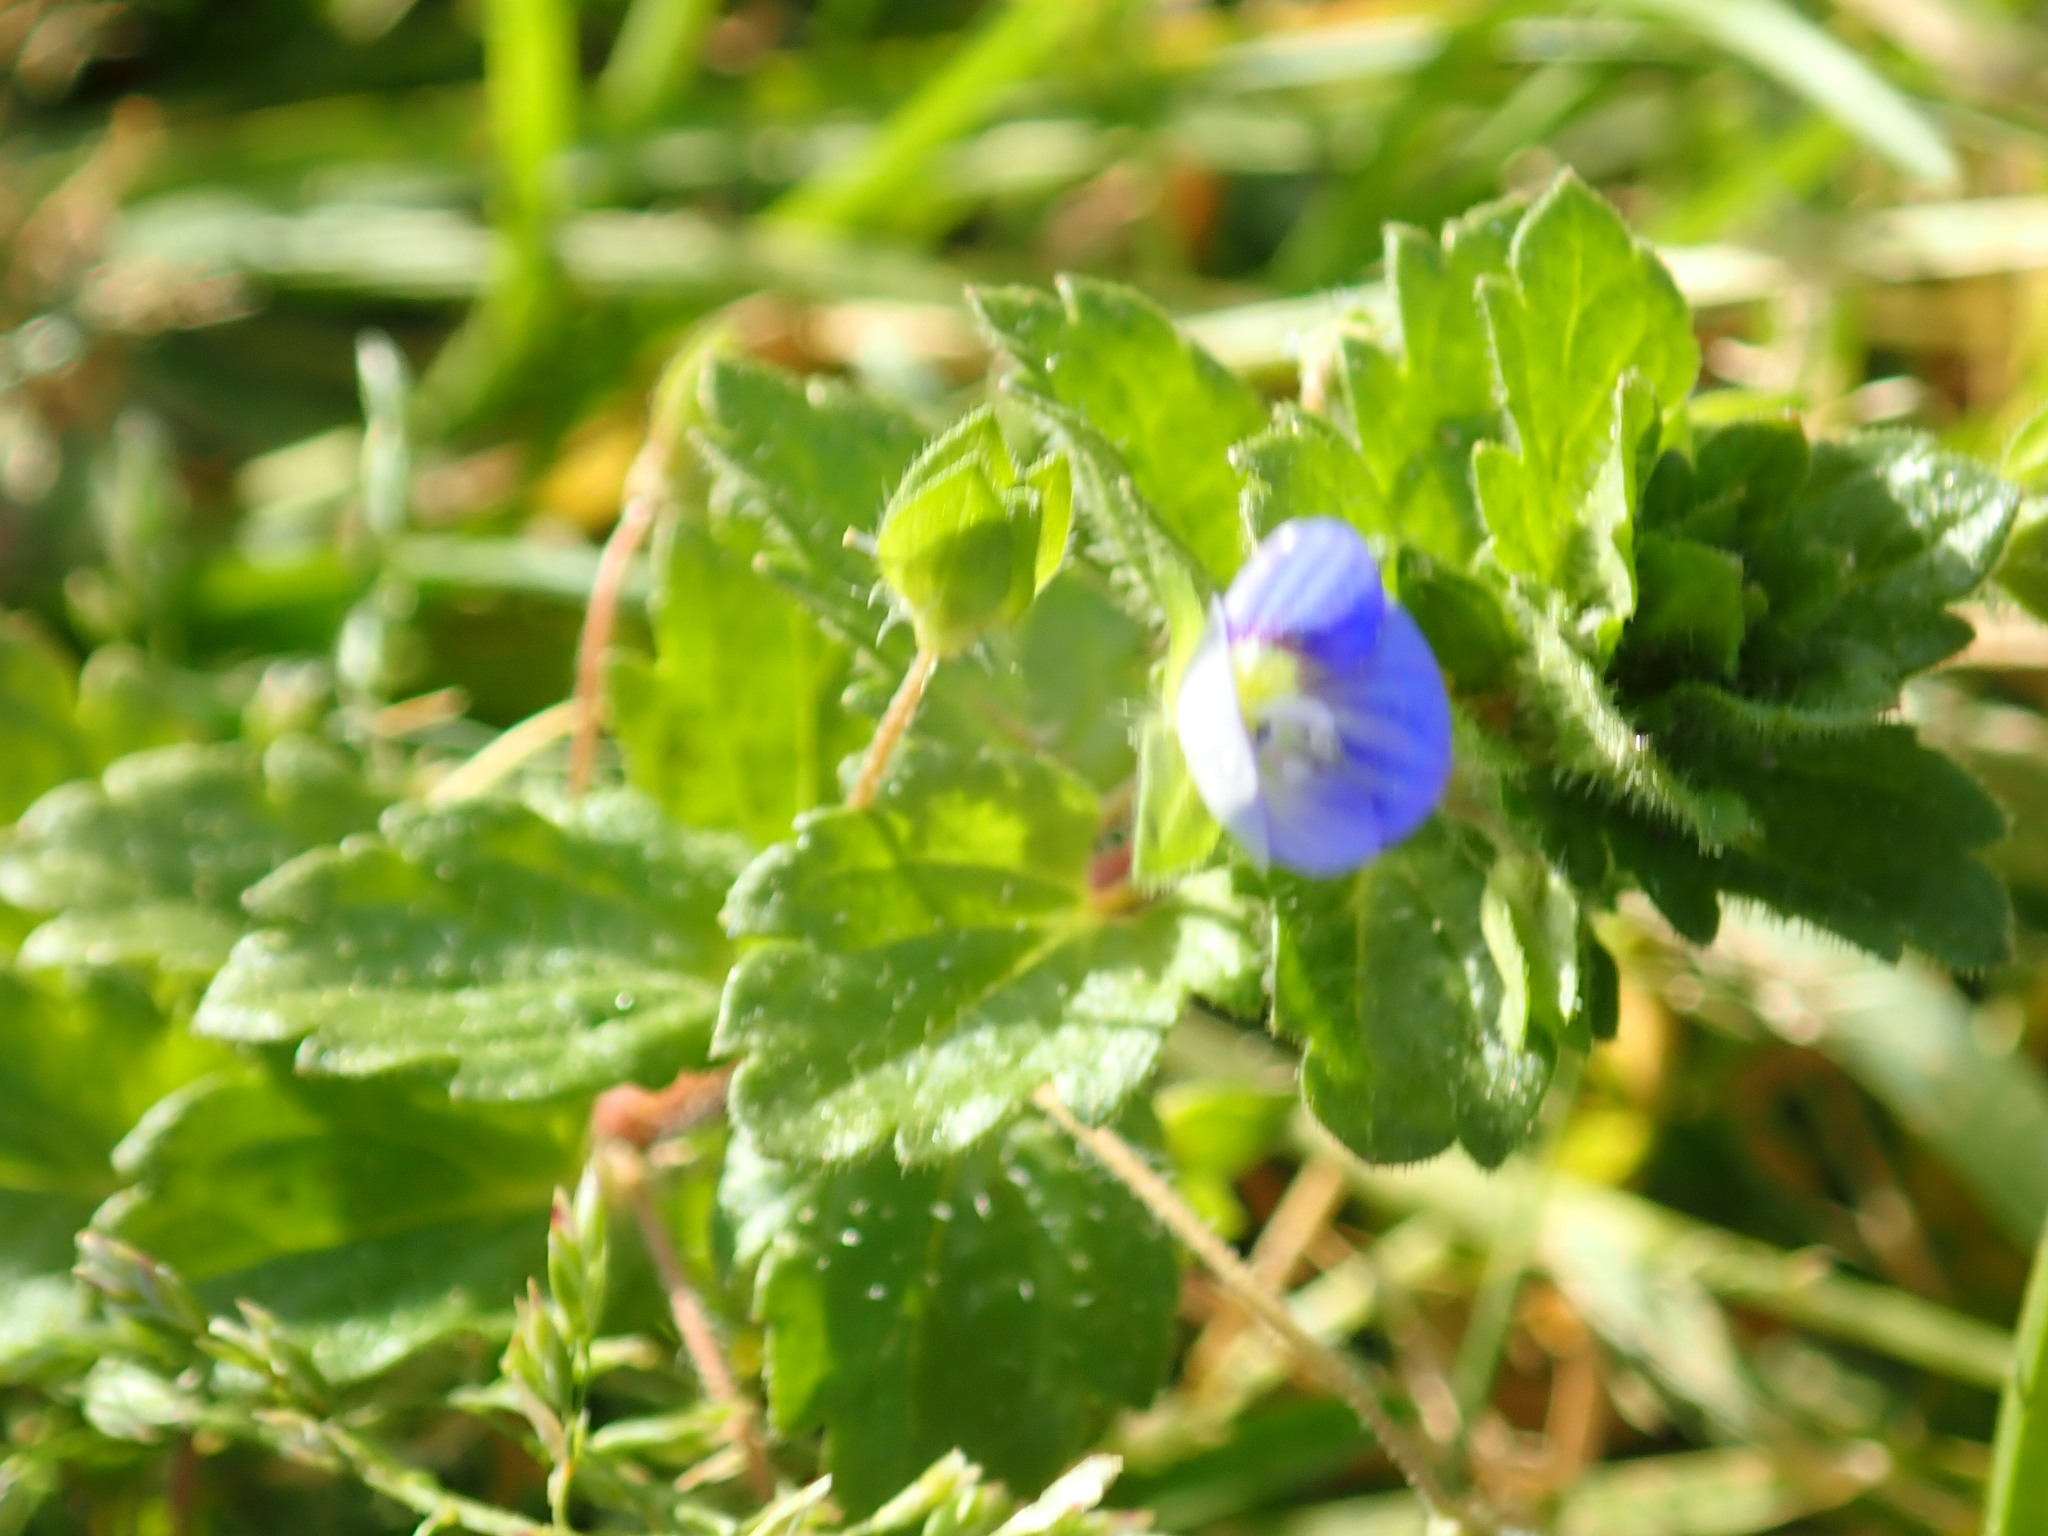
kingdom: Plantae
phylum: Tracheophyta
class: Magnoliopsida
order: Lamiales
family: Plantaginaceae
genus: Veronica
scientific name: Veronica persica
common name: Common field-speedwell
